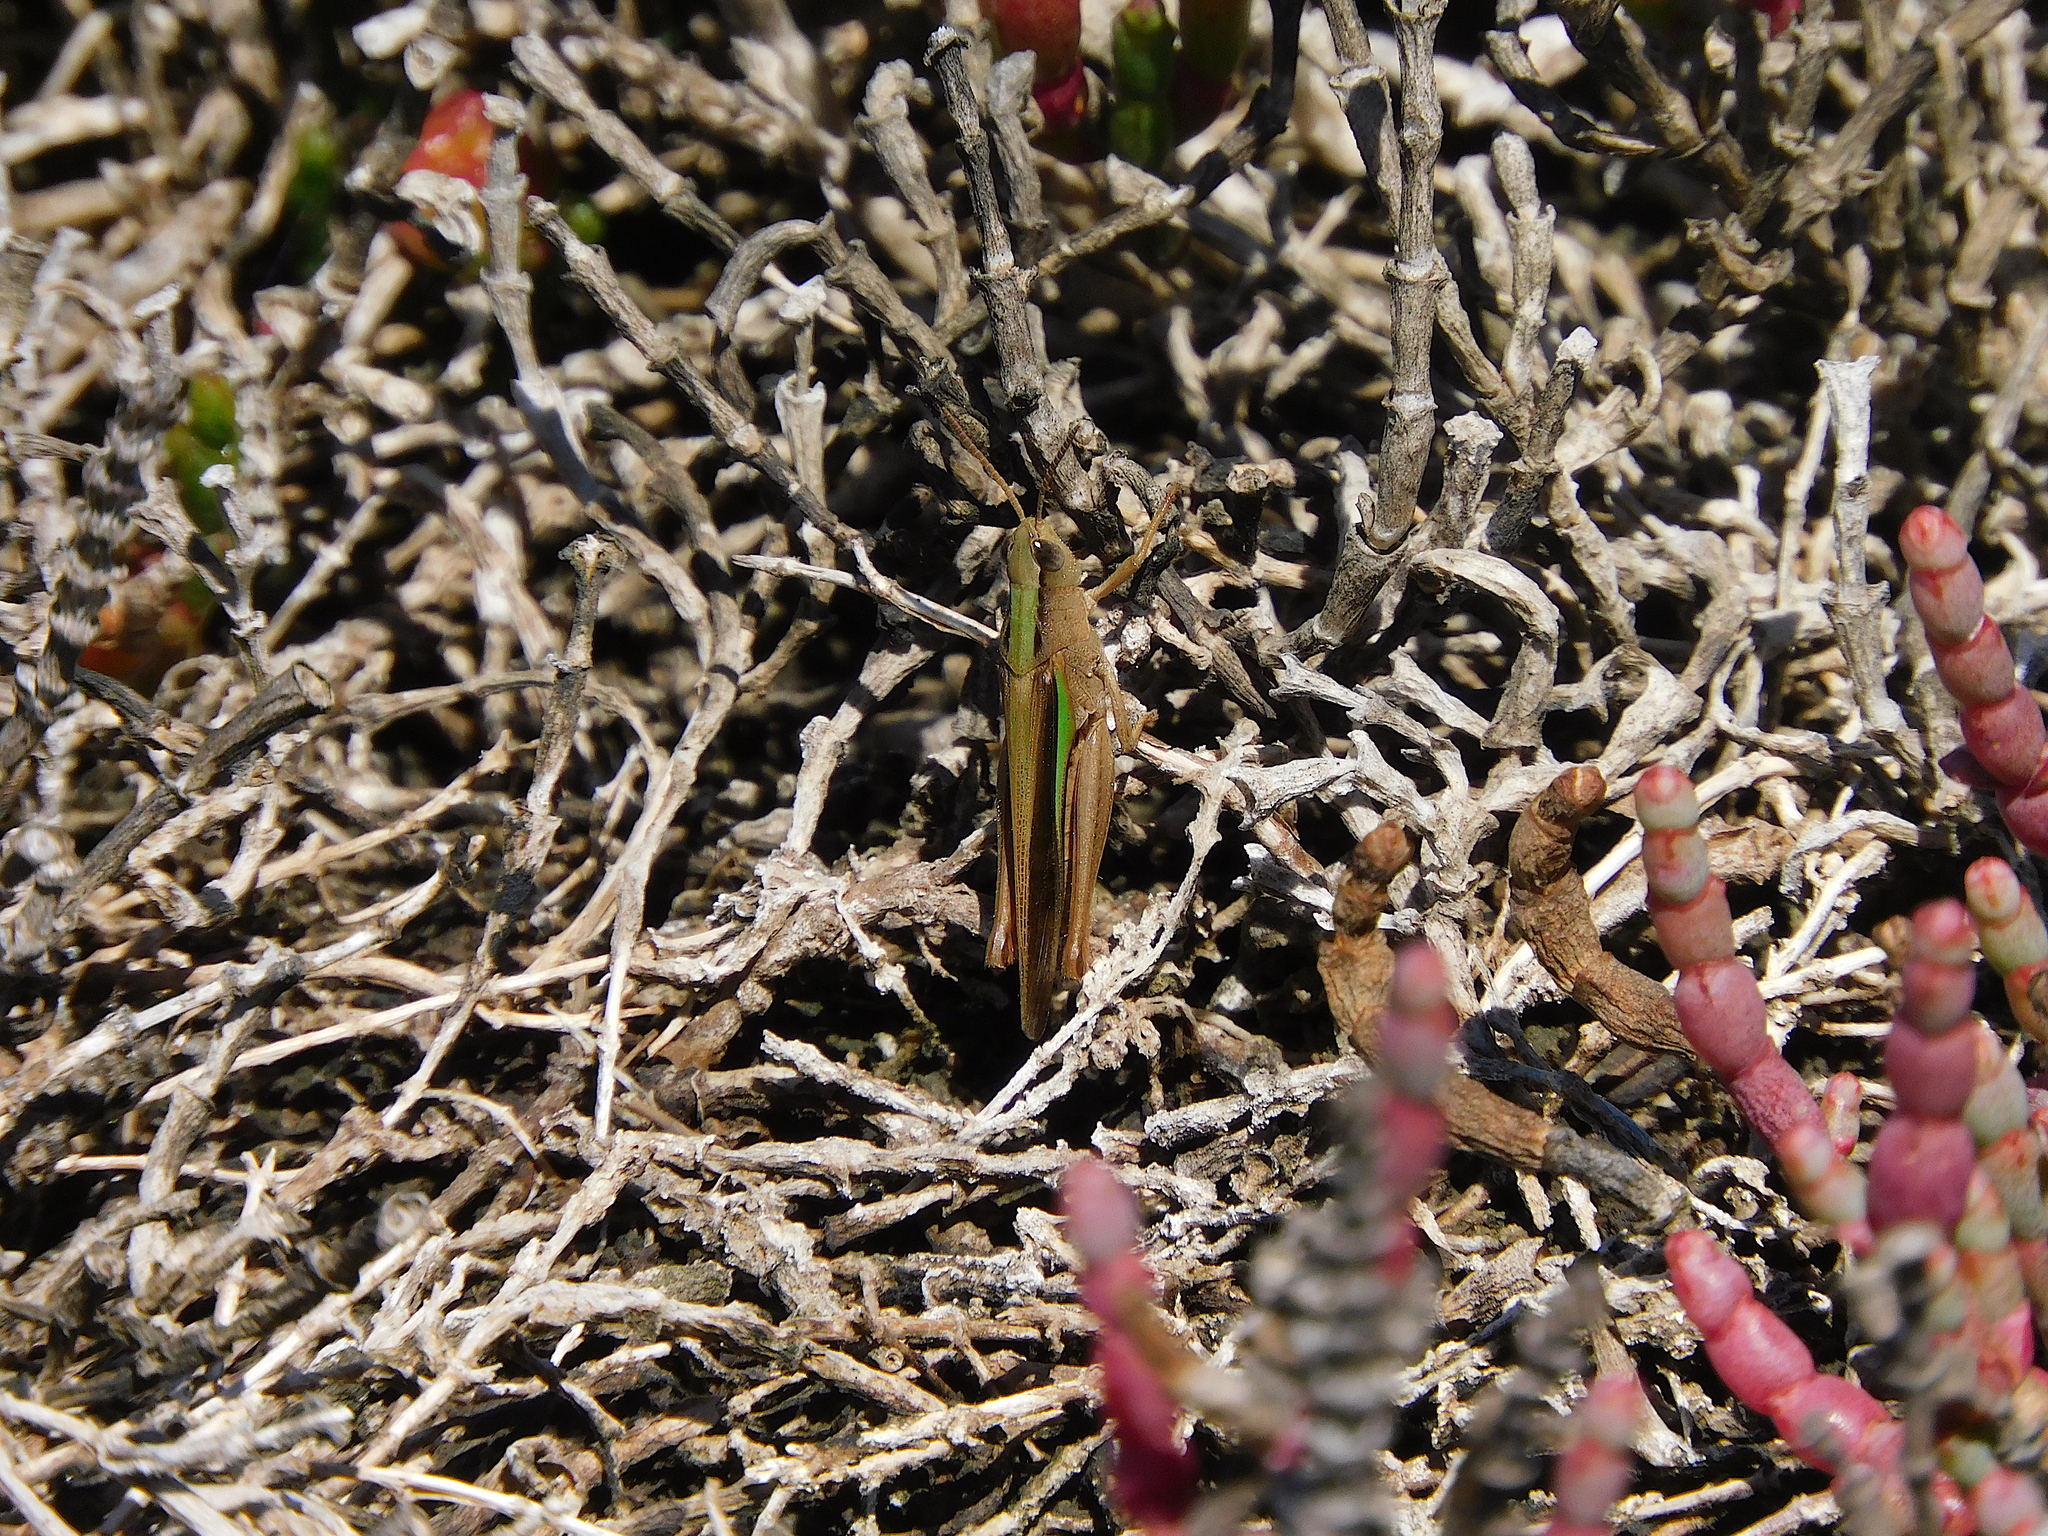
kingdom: Animalia
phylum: Arthropoda
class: Insecta
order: Orthoptera
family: Acrididae
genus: Schizobothrus
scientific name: Schizobothrus flavovittatus
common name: Disappearing grasshopper
